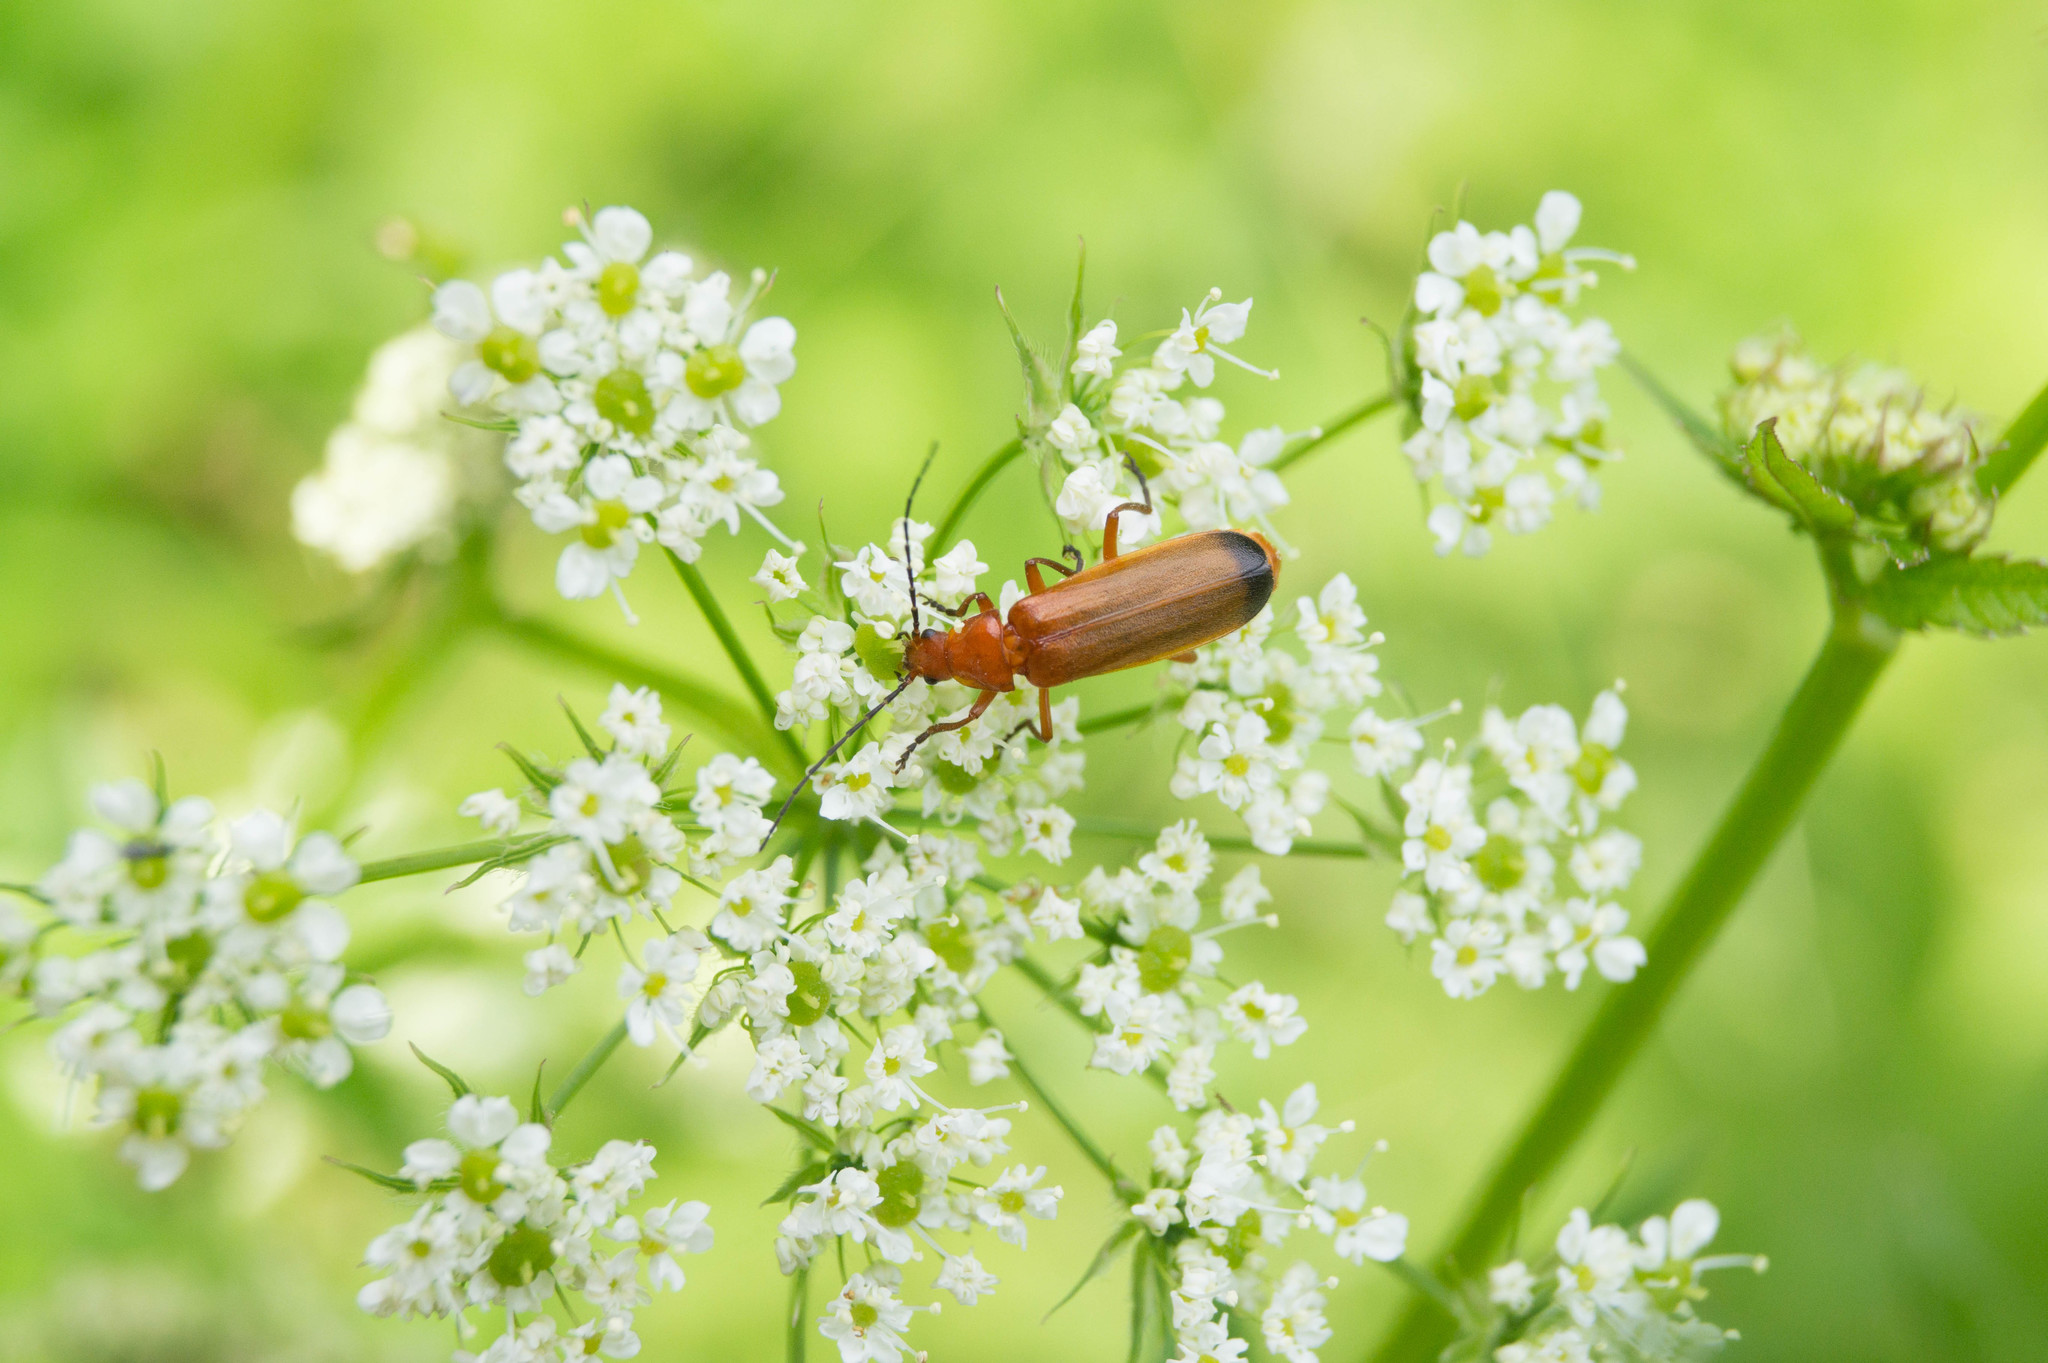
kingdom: Animalia
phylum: Arthropoda
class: Insecta
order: Coleoptera
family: Cantharidae
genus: Rhagonycha
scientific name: Rhagonycha fulva
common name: Common red soldier beetle
